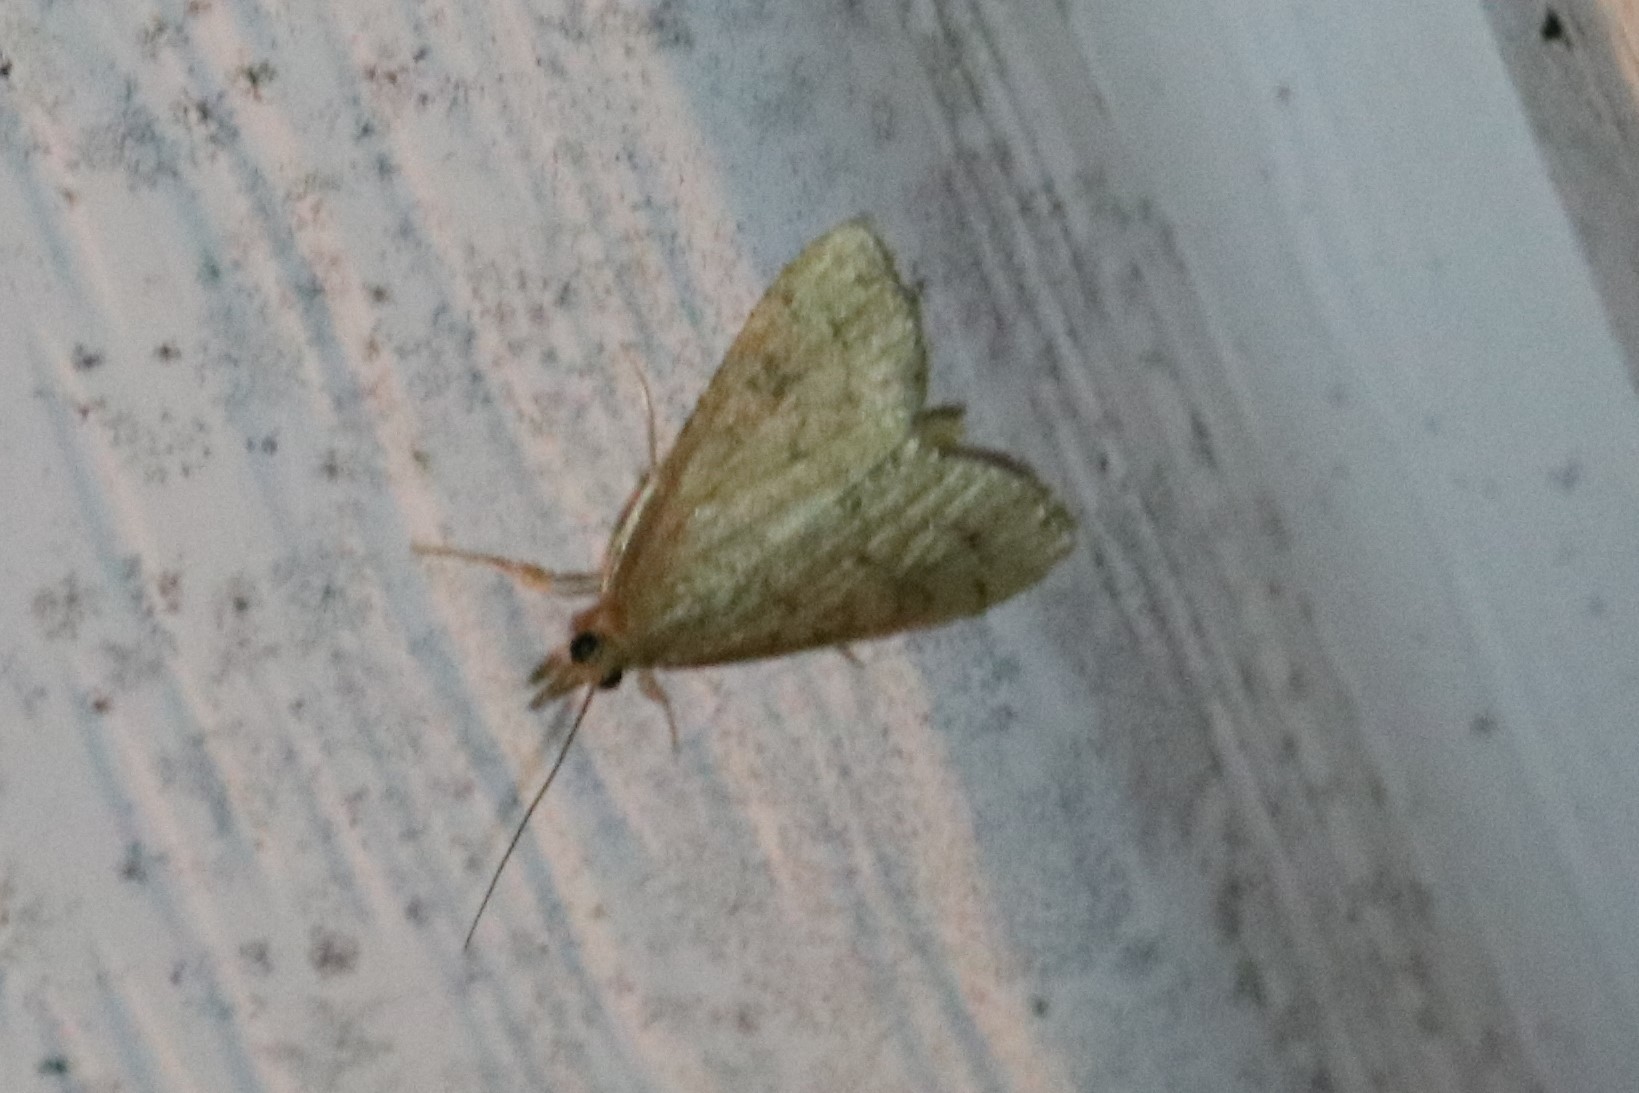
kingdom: Animalia
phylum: Arthropoda
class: Insecta
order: Lepidoptera
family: Crambidae
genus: Udea
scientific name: Udea rubigalis
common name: Celery leaftier moth
